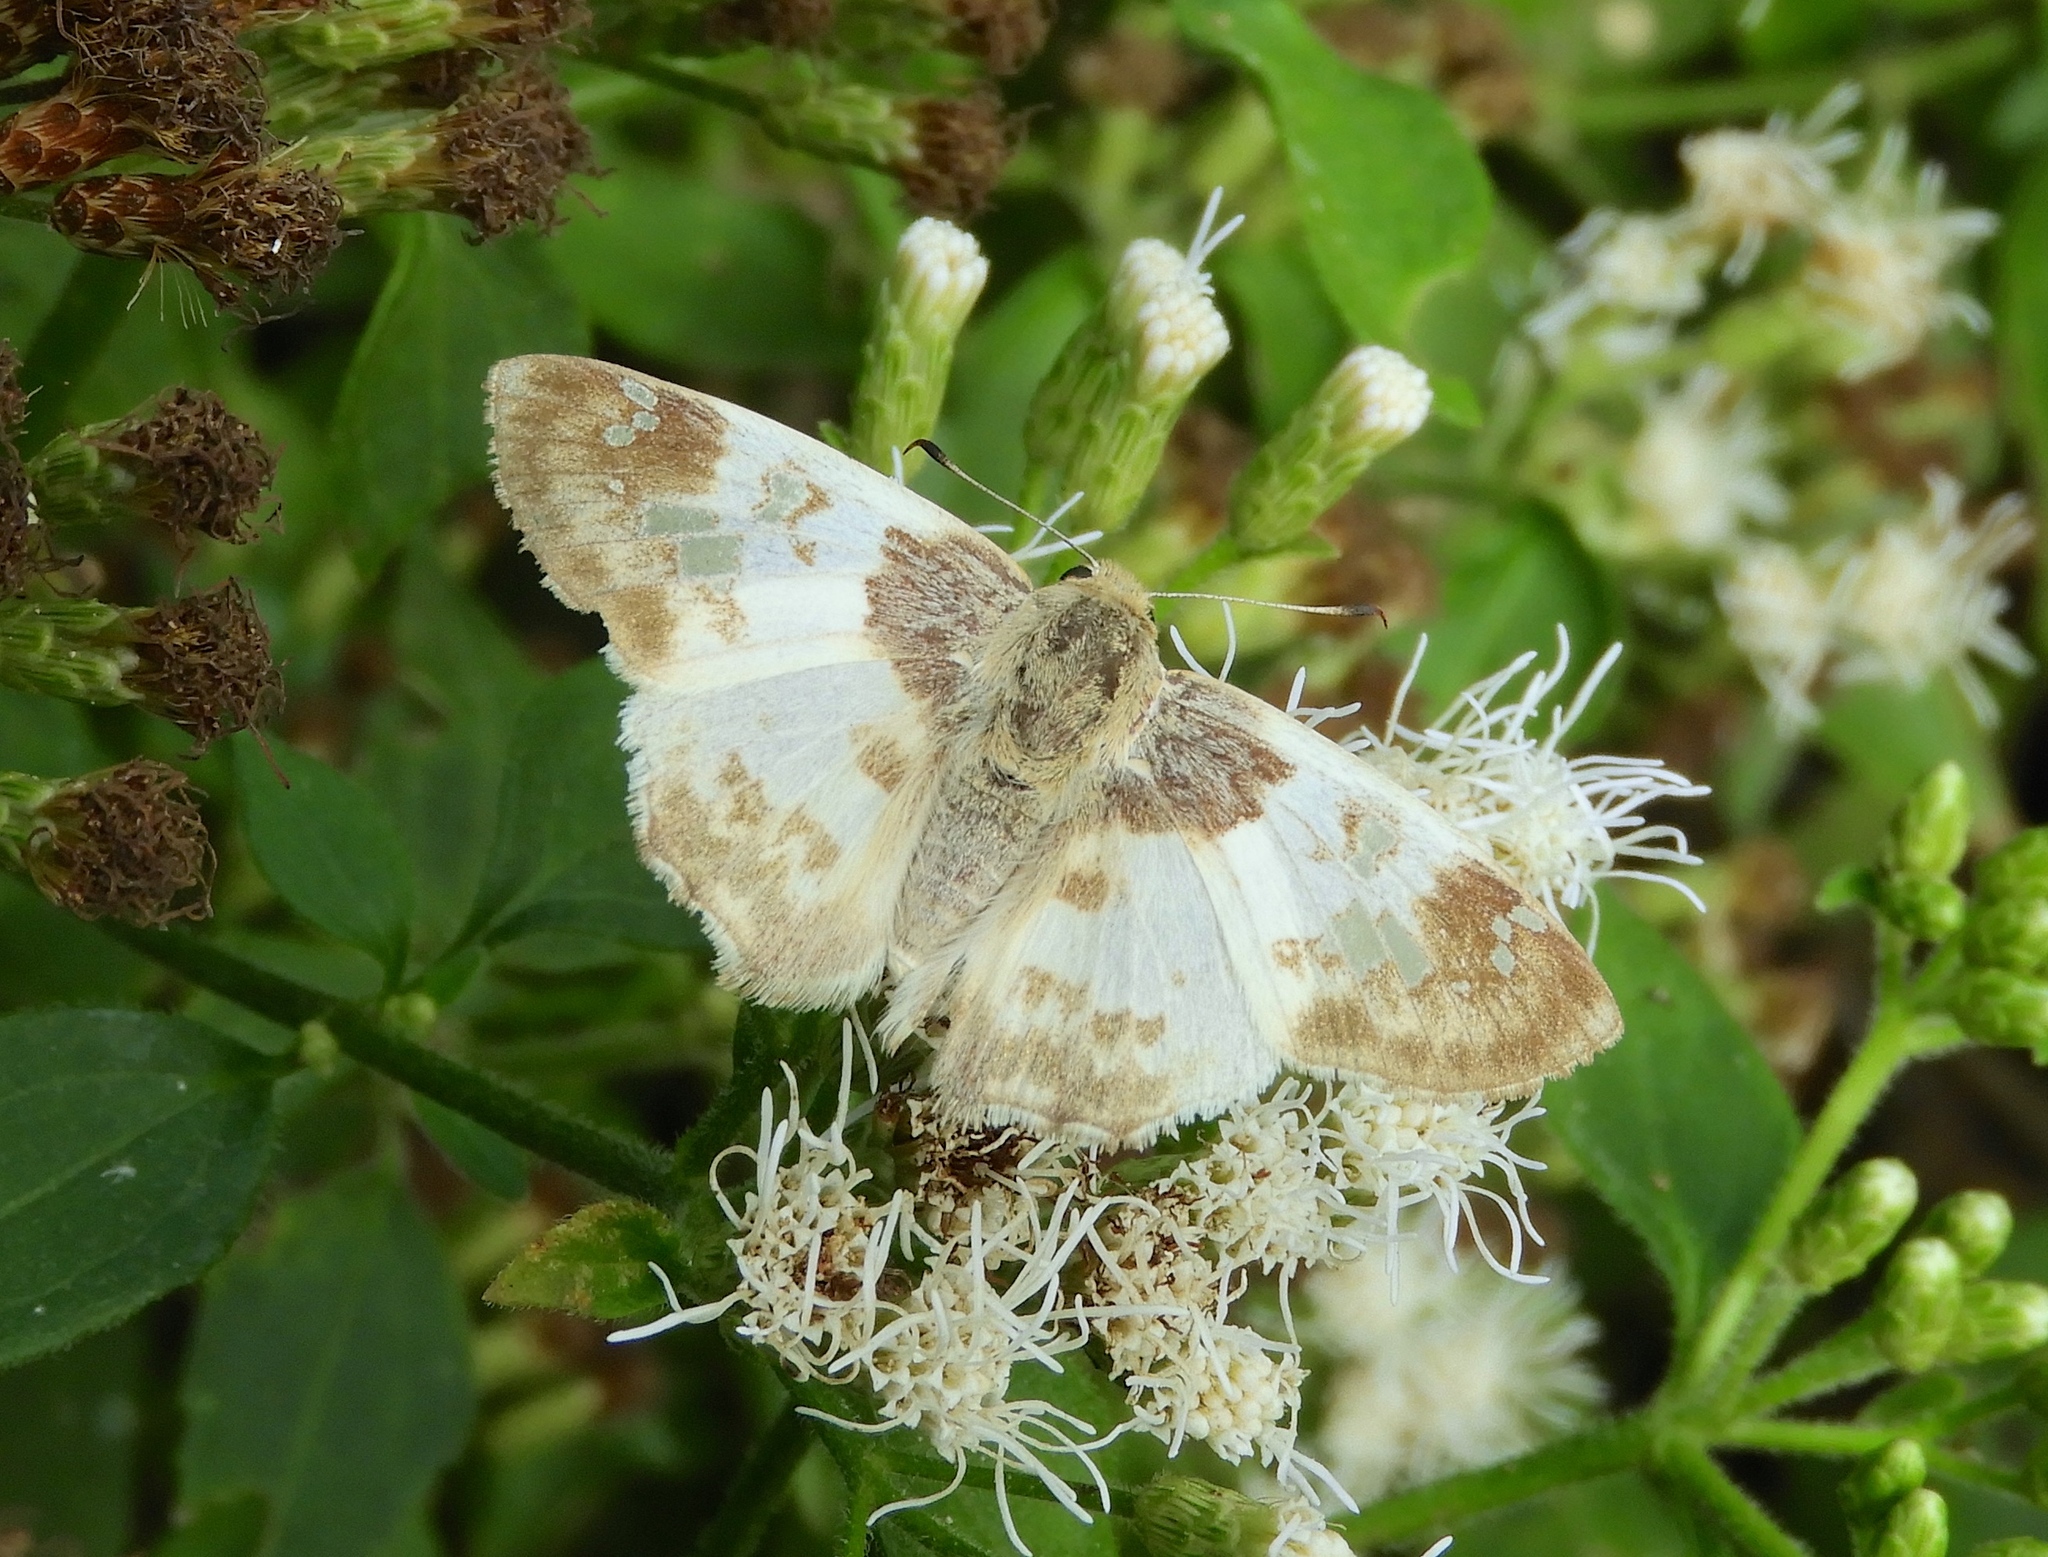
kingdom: Animalia
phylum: Arthropoda
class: Insecta
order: Lepidoptera
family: Hesperiidae
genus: Polyctor
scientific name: Polyctor cleta
